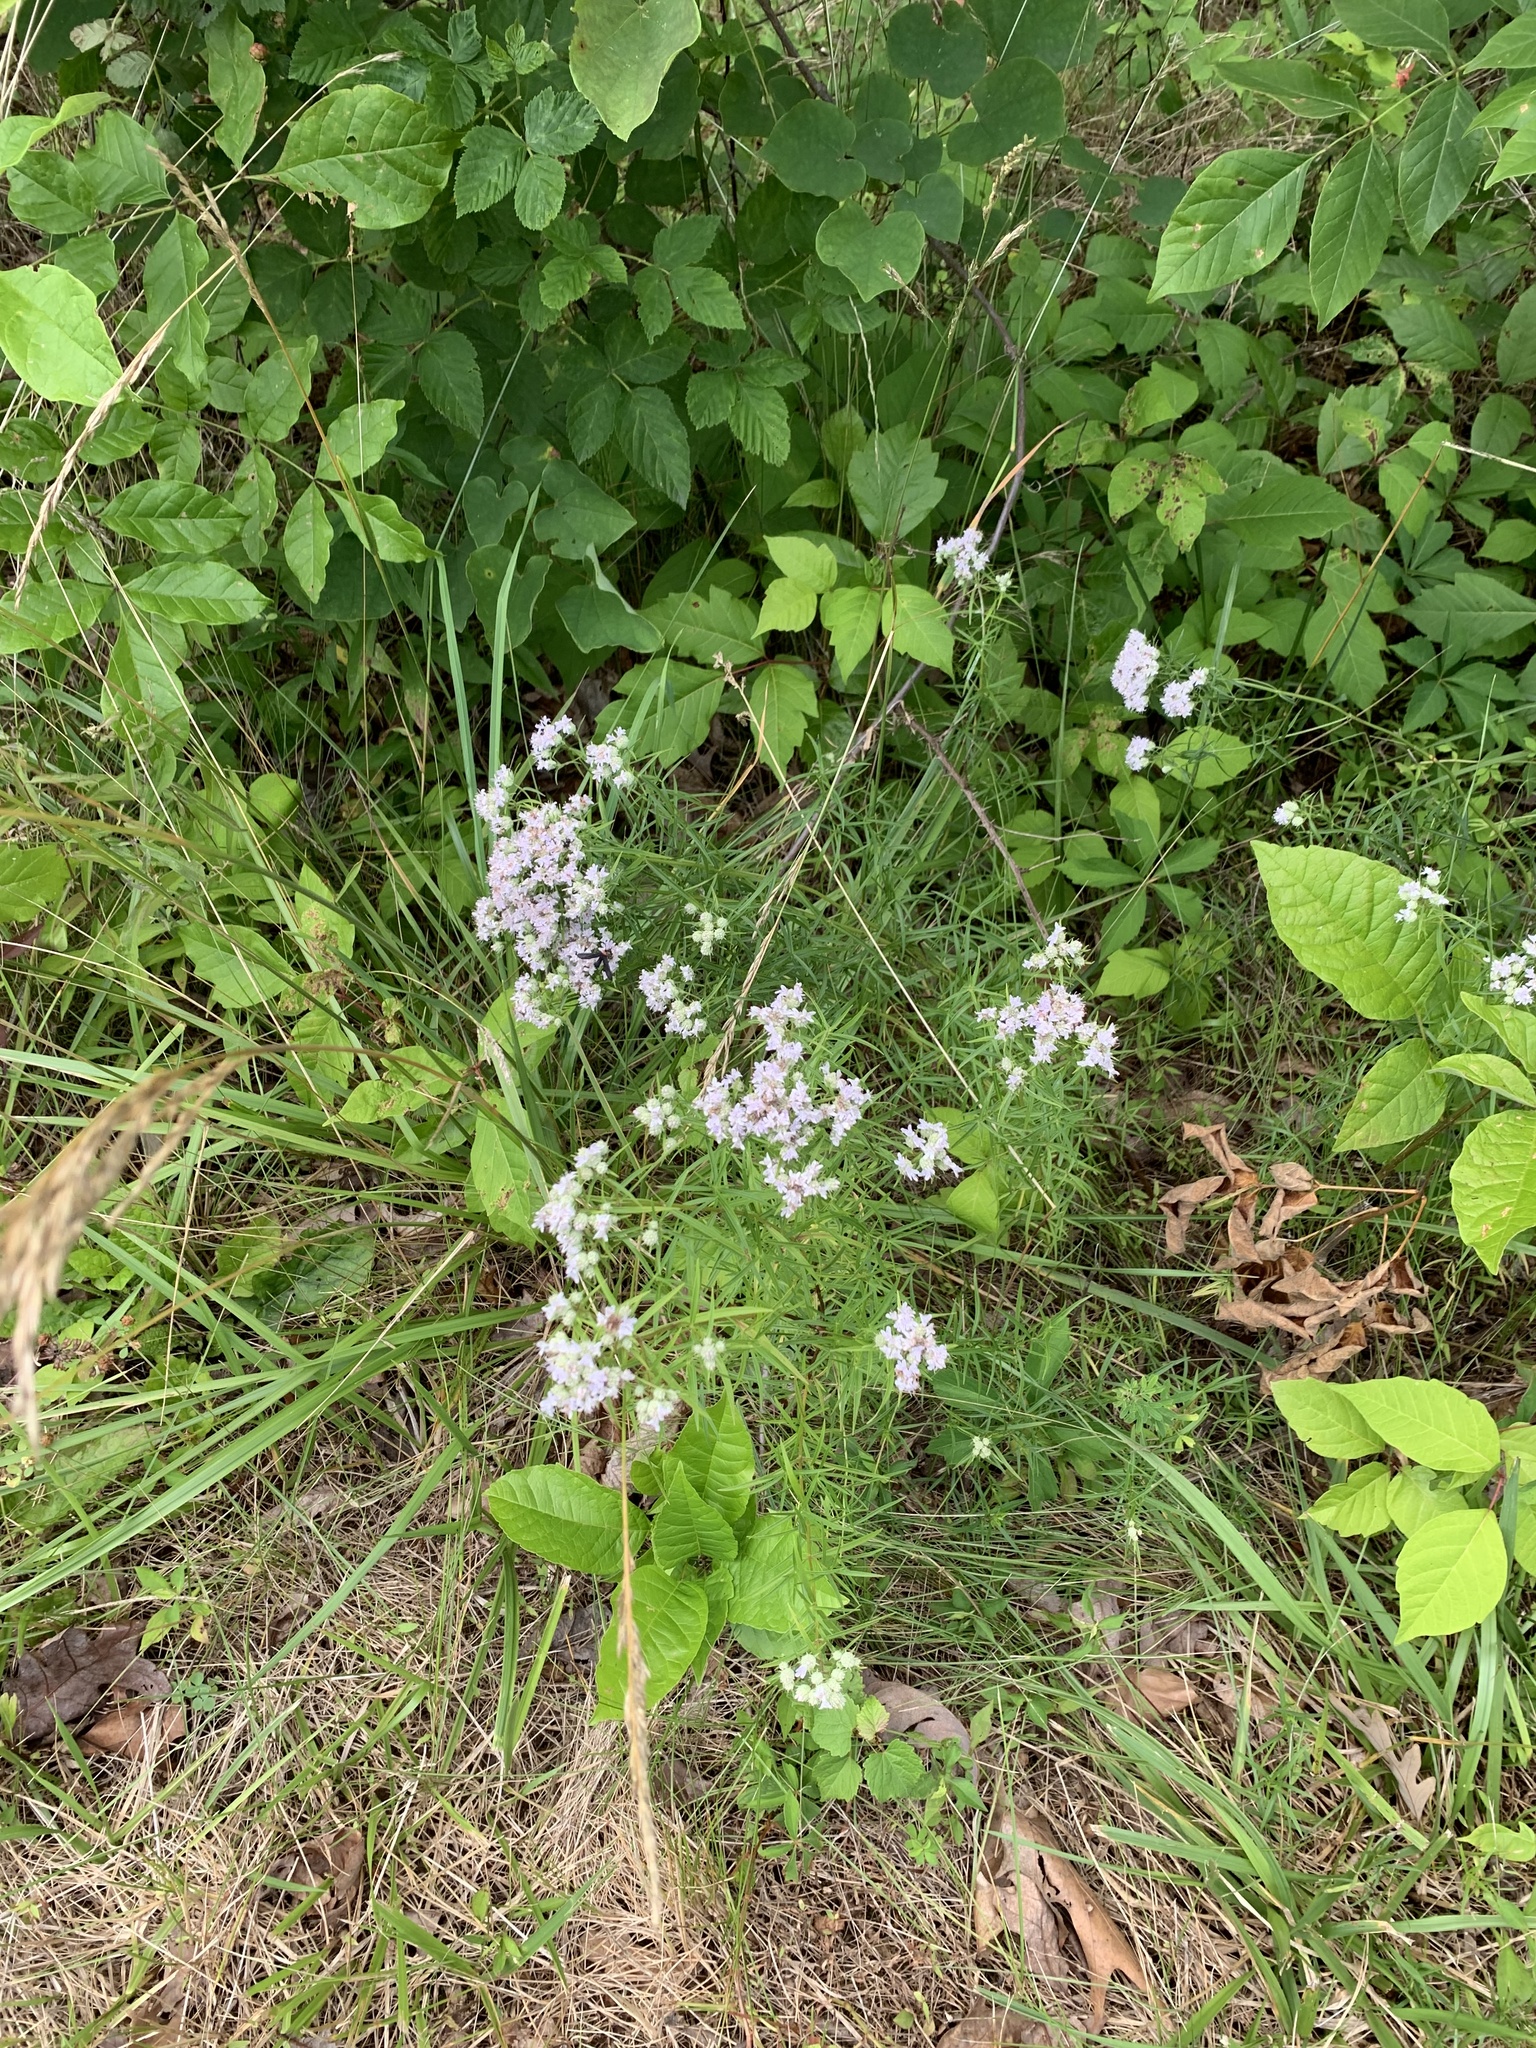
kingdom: Plantae
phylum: Tracheophyta
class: Magnoliopsida
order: Lamiales
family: Lamiaceae
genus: Pycnanthemum
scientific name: Pycnanthemum tenuifolium
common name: Narrow-leaf mountain-mint
